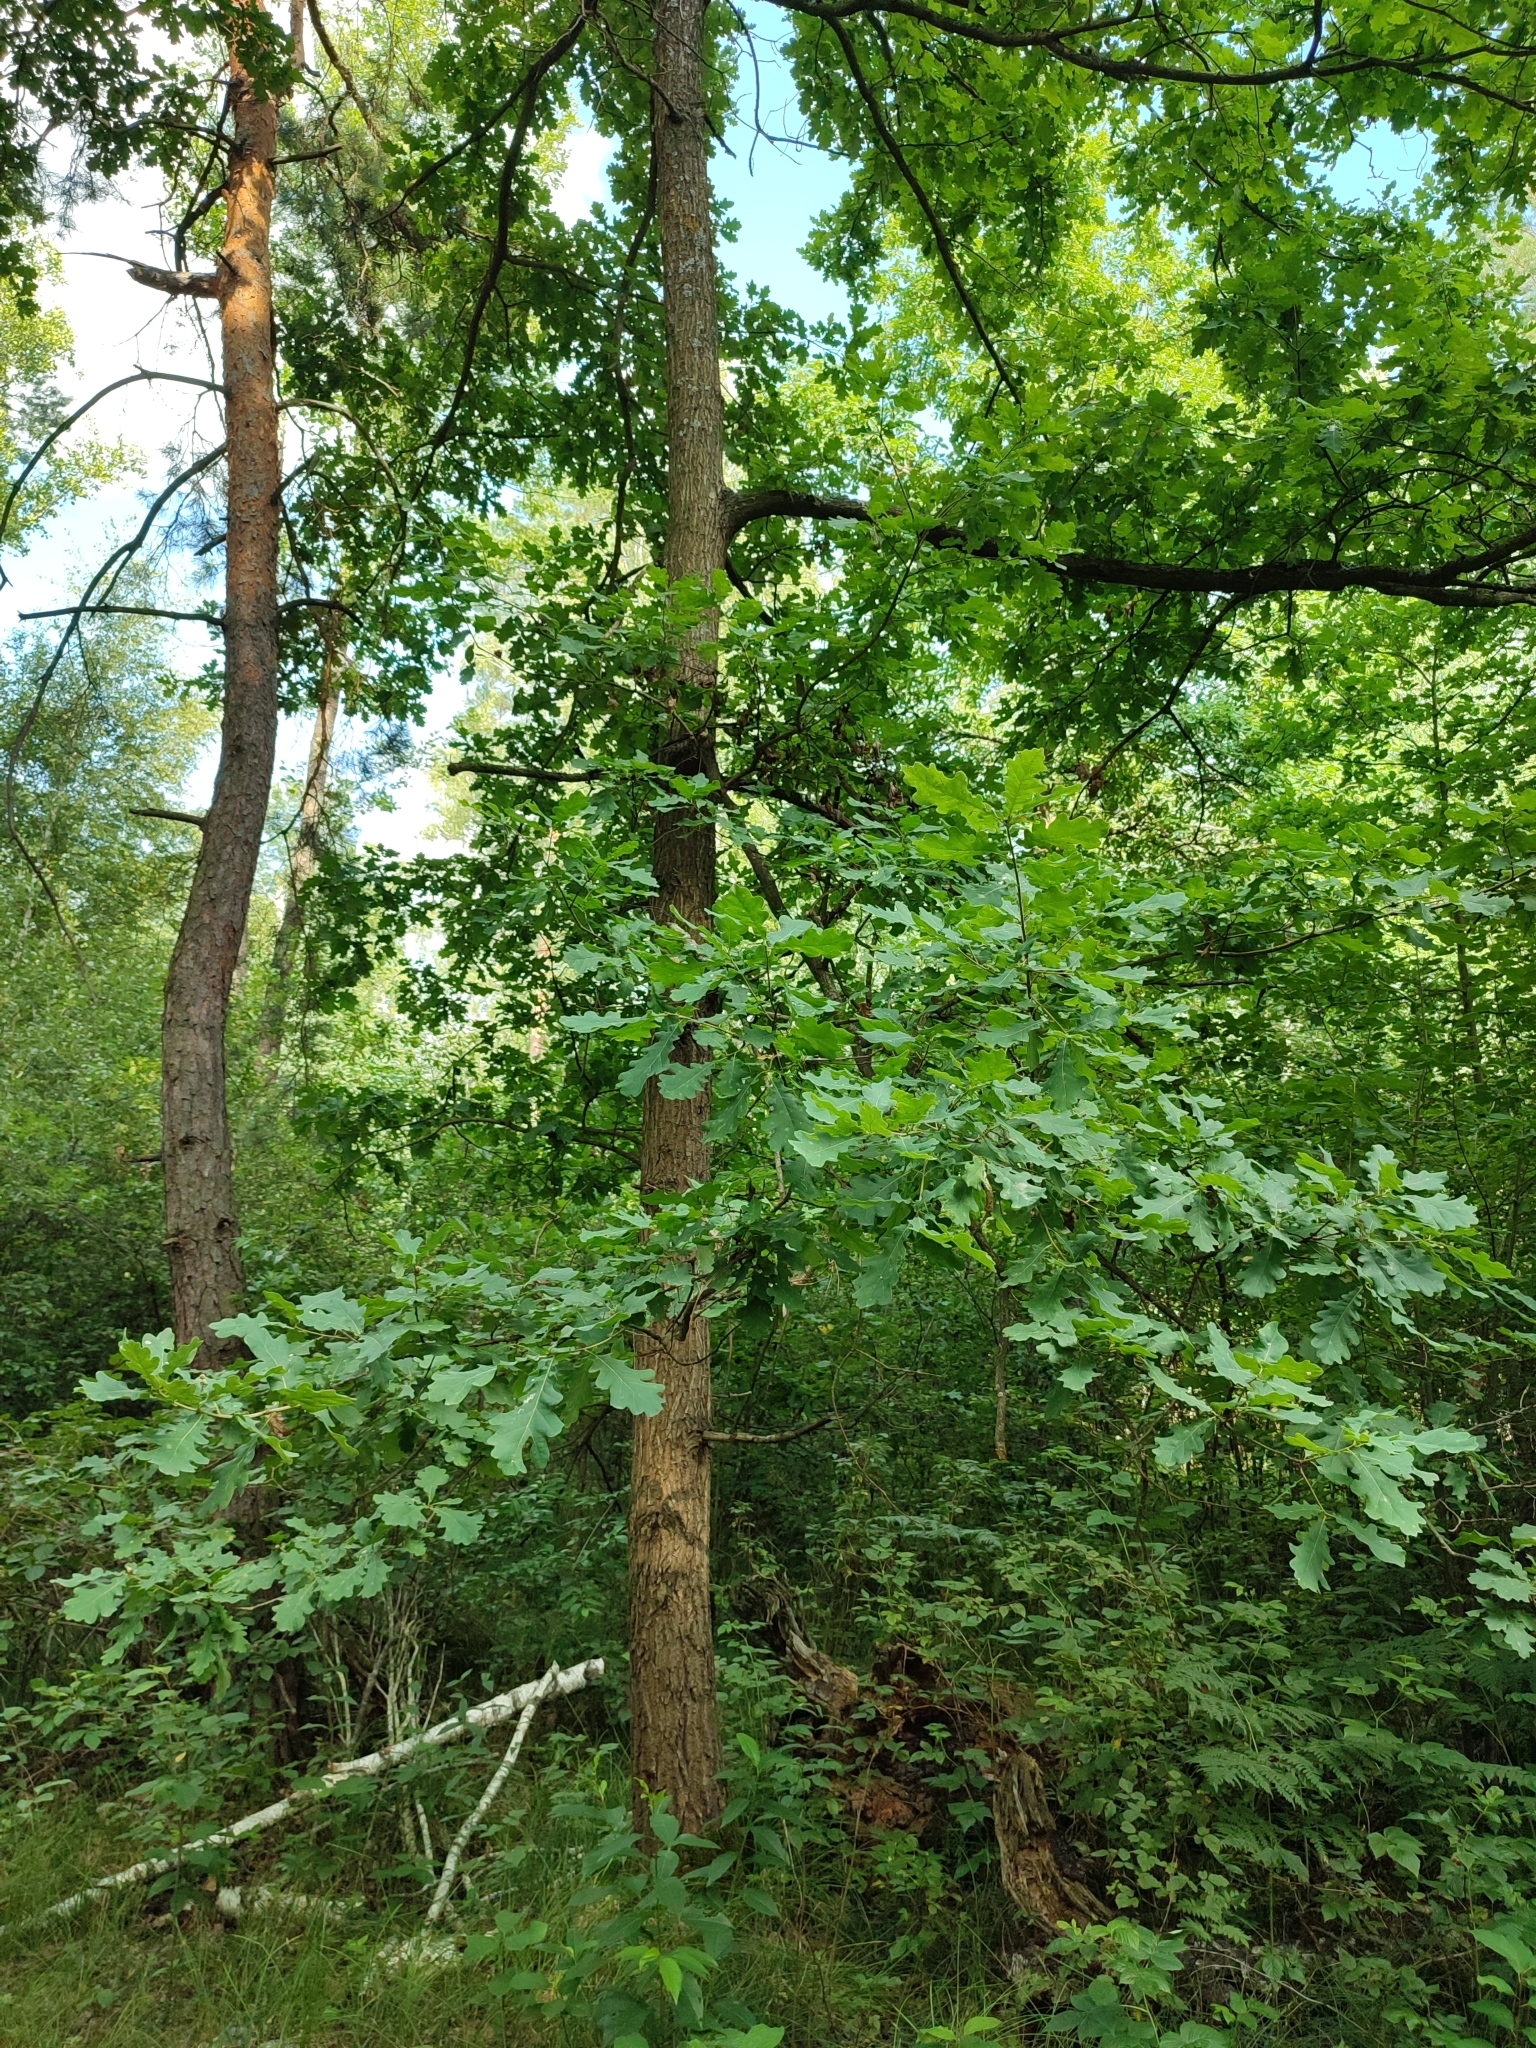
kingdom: Plantae
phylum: Tracheophyta
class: Magnoliopsida
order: Fagales
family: Fagaceae
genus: Quercus
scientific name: Quercus robur
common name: Pedunculate oak
